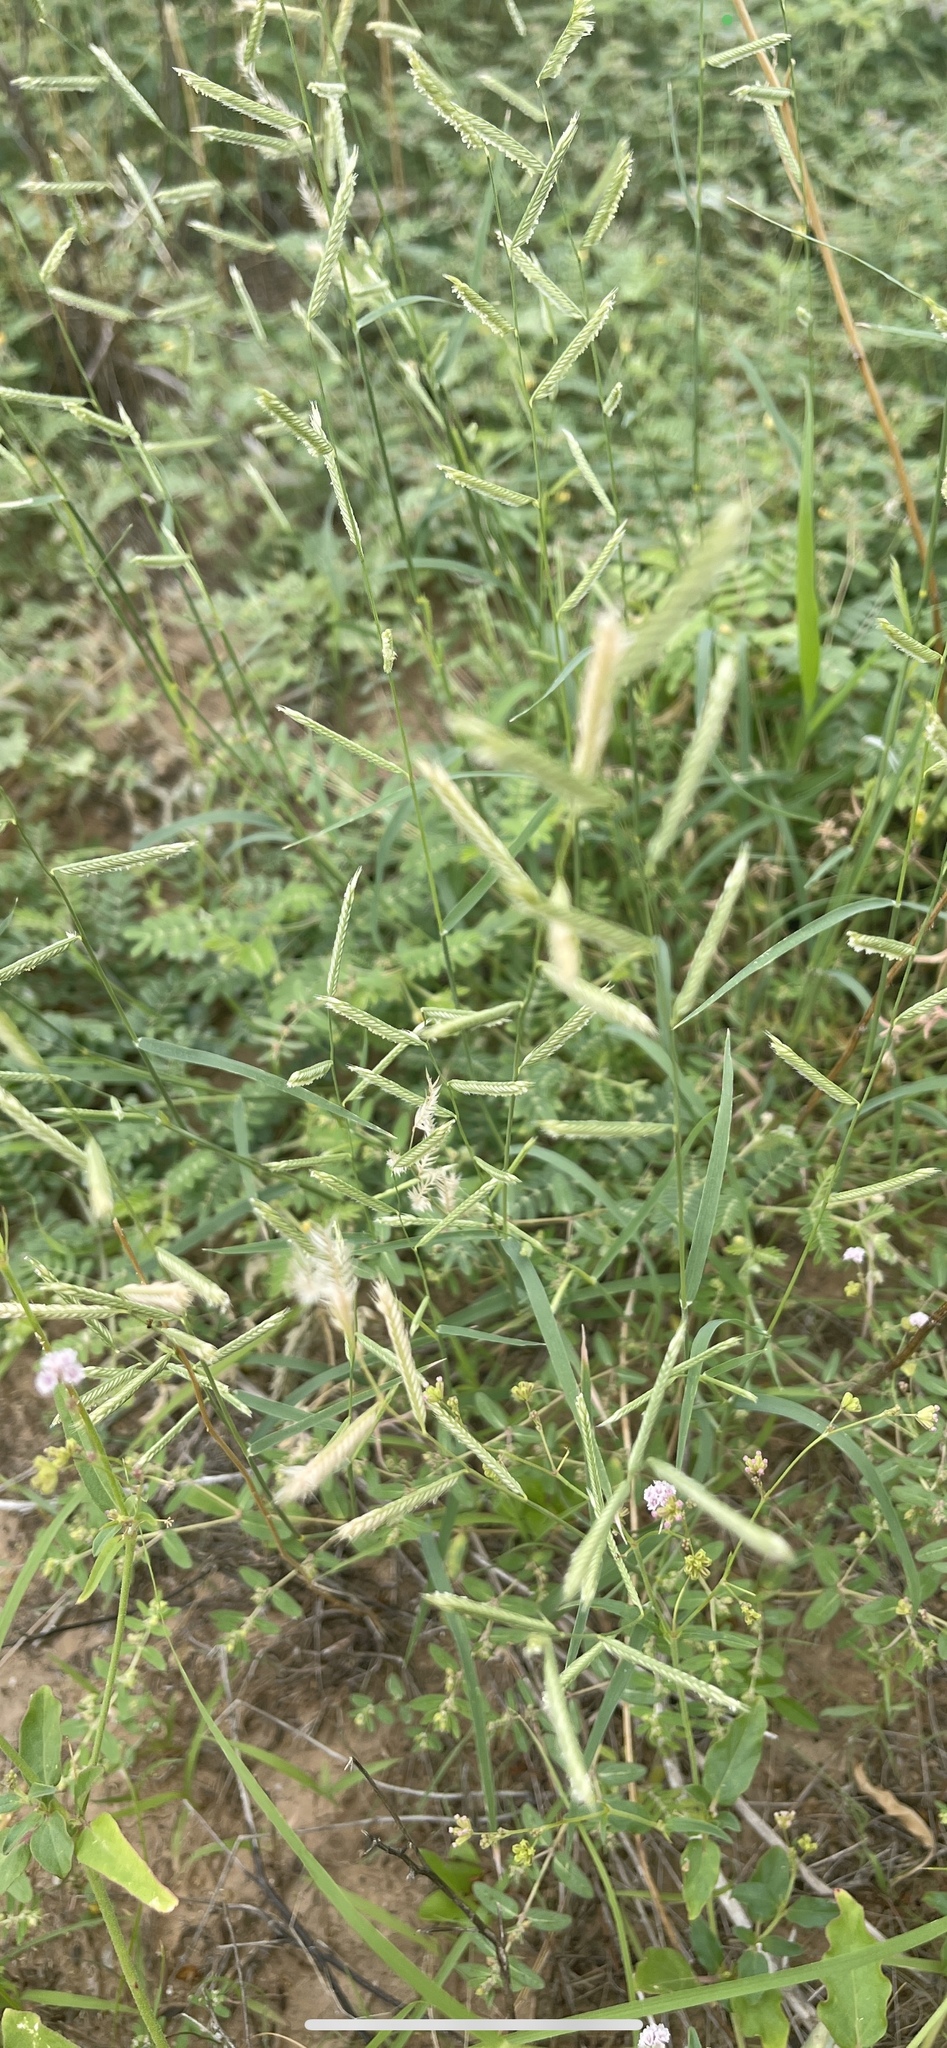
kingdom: Plantae
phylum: Tracheophyta
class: Liliopsida
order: Poales
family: Poaceae
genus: Bouteloua
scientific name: Bouteloua barbata
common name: Six-weeks grama
